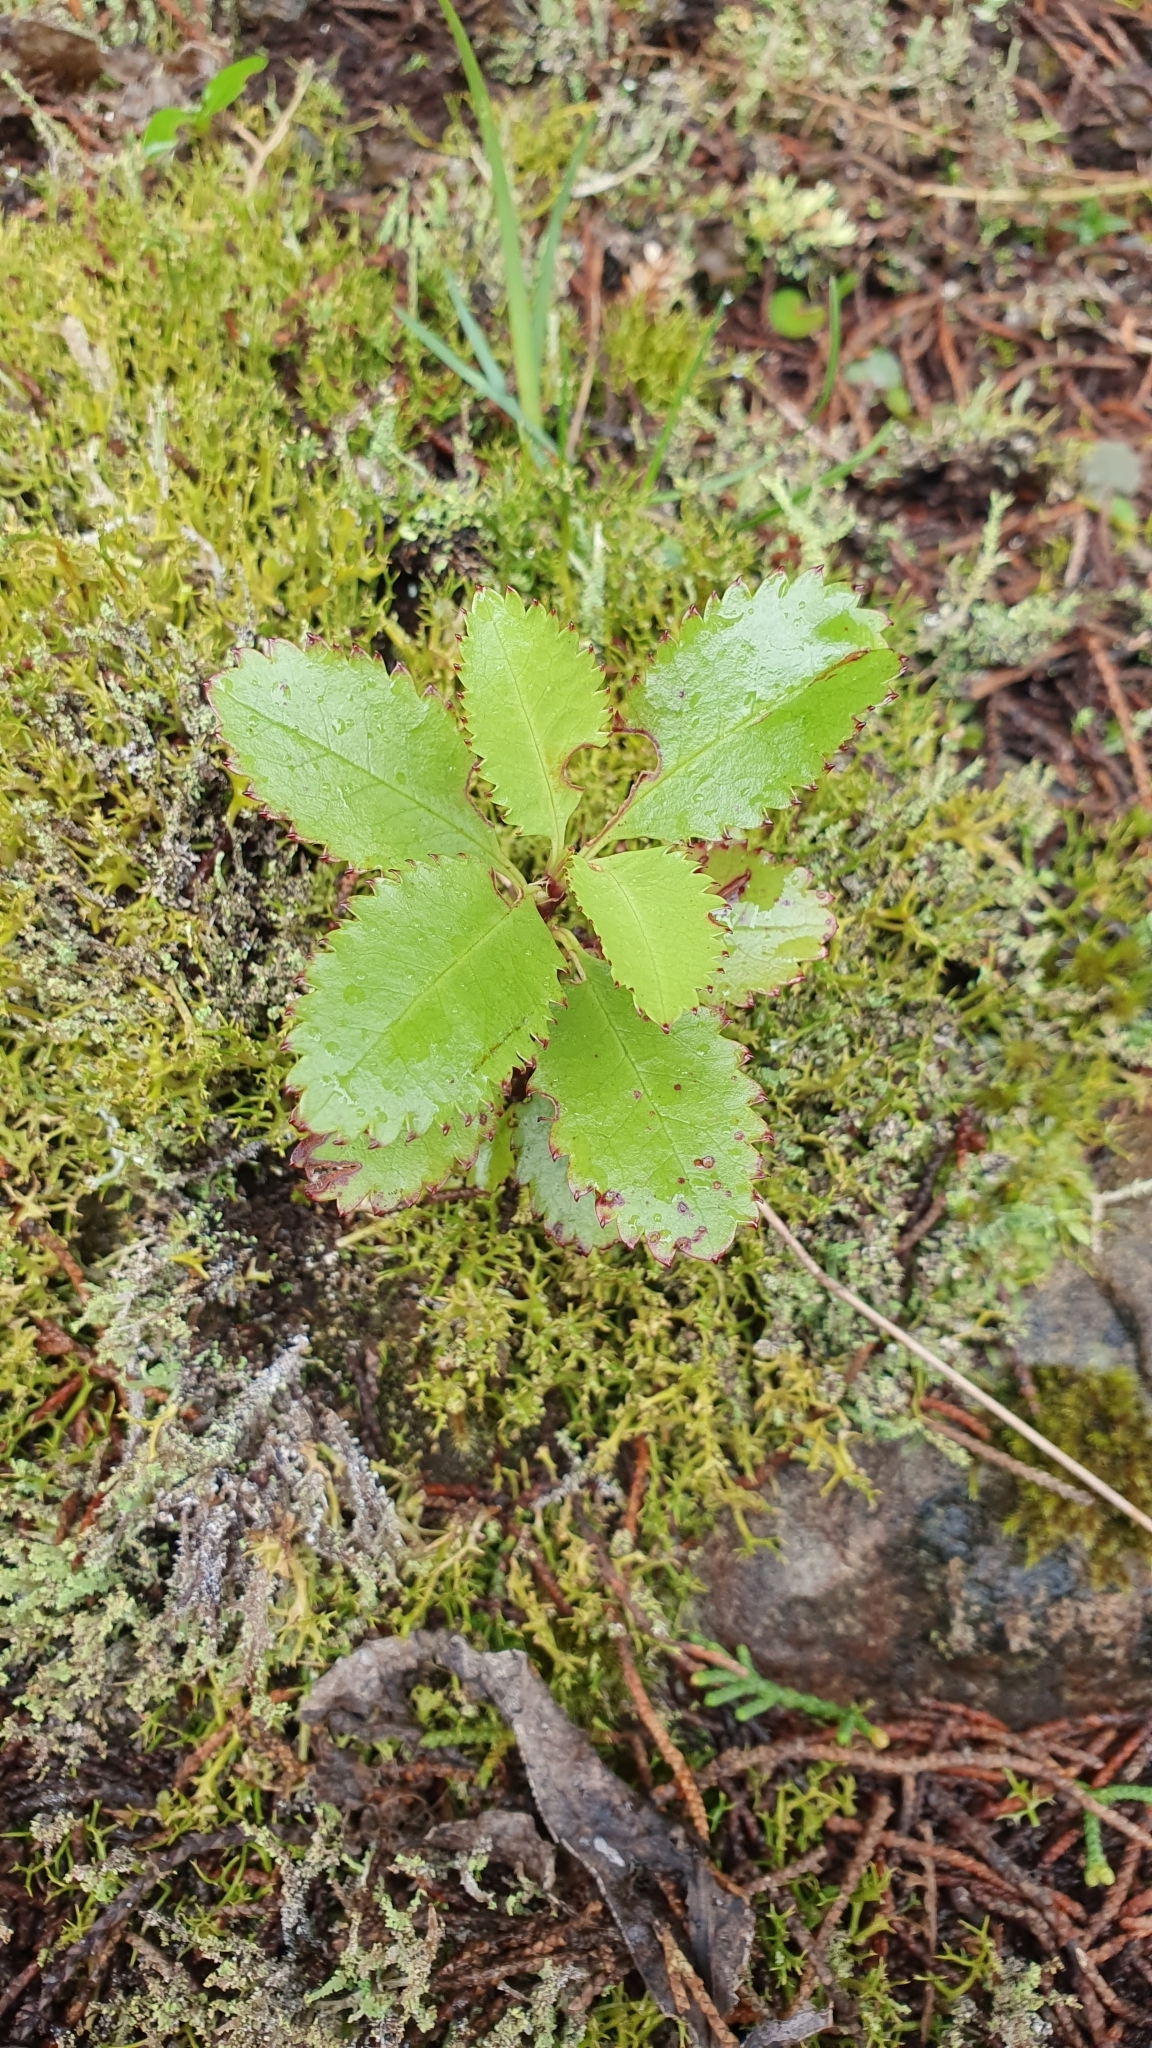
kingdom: Plantae
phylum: Tracheophyta
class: Magnoliopsida
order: Chloranthales
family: Chloranthaceae
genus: Ascarina
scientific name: Ascarina lucida
